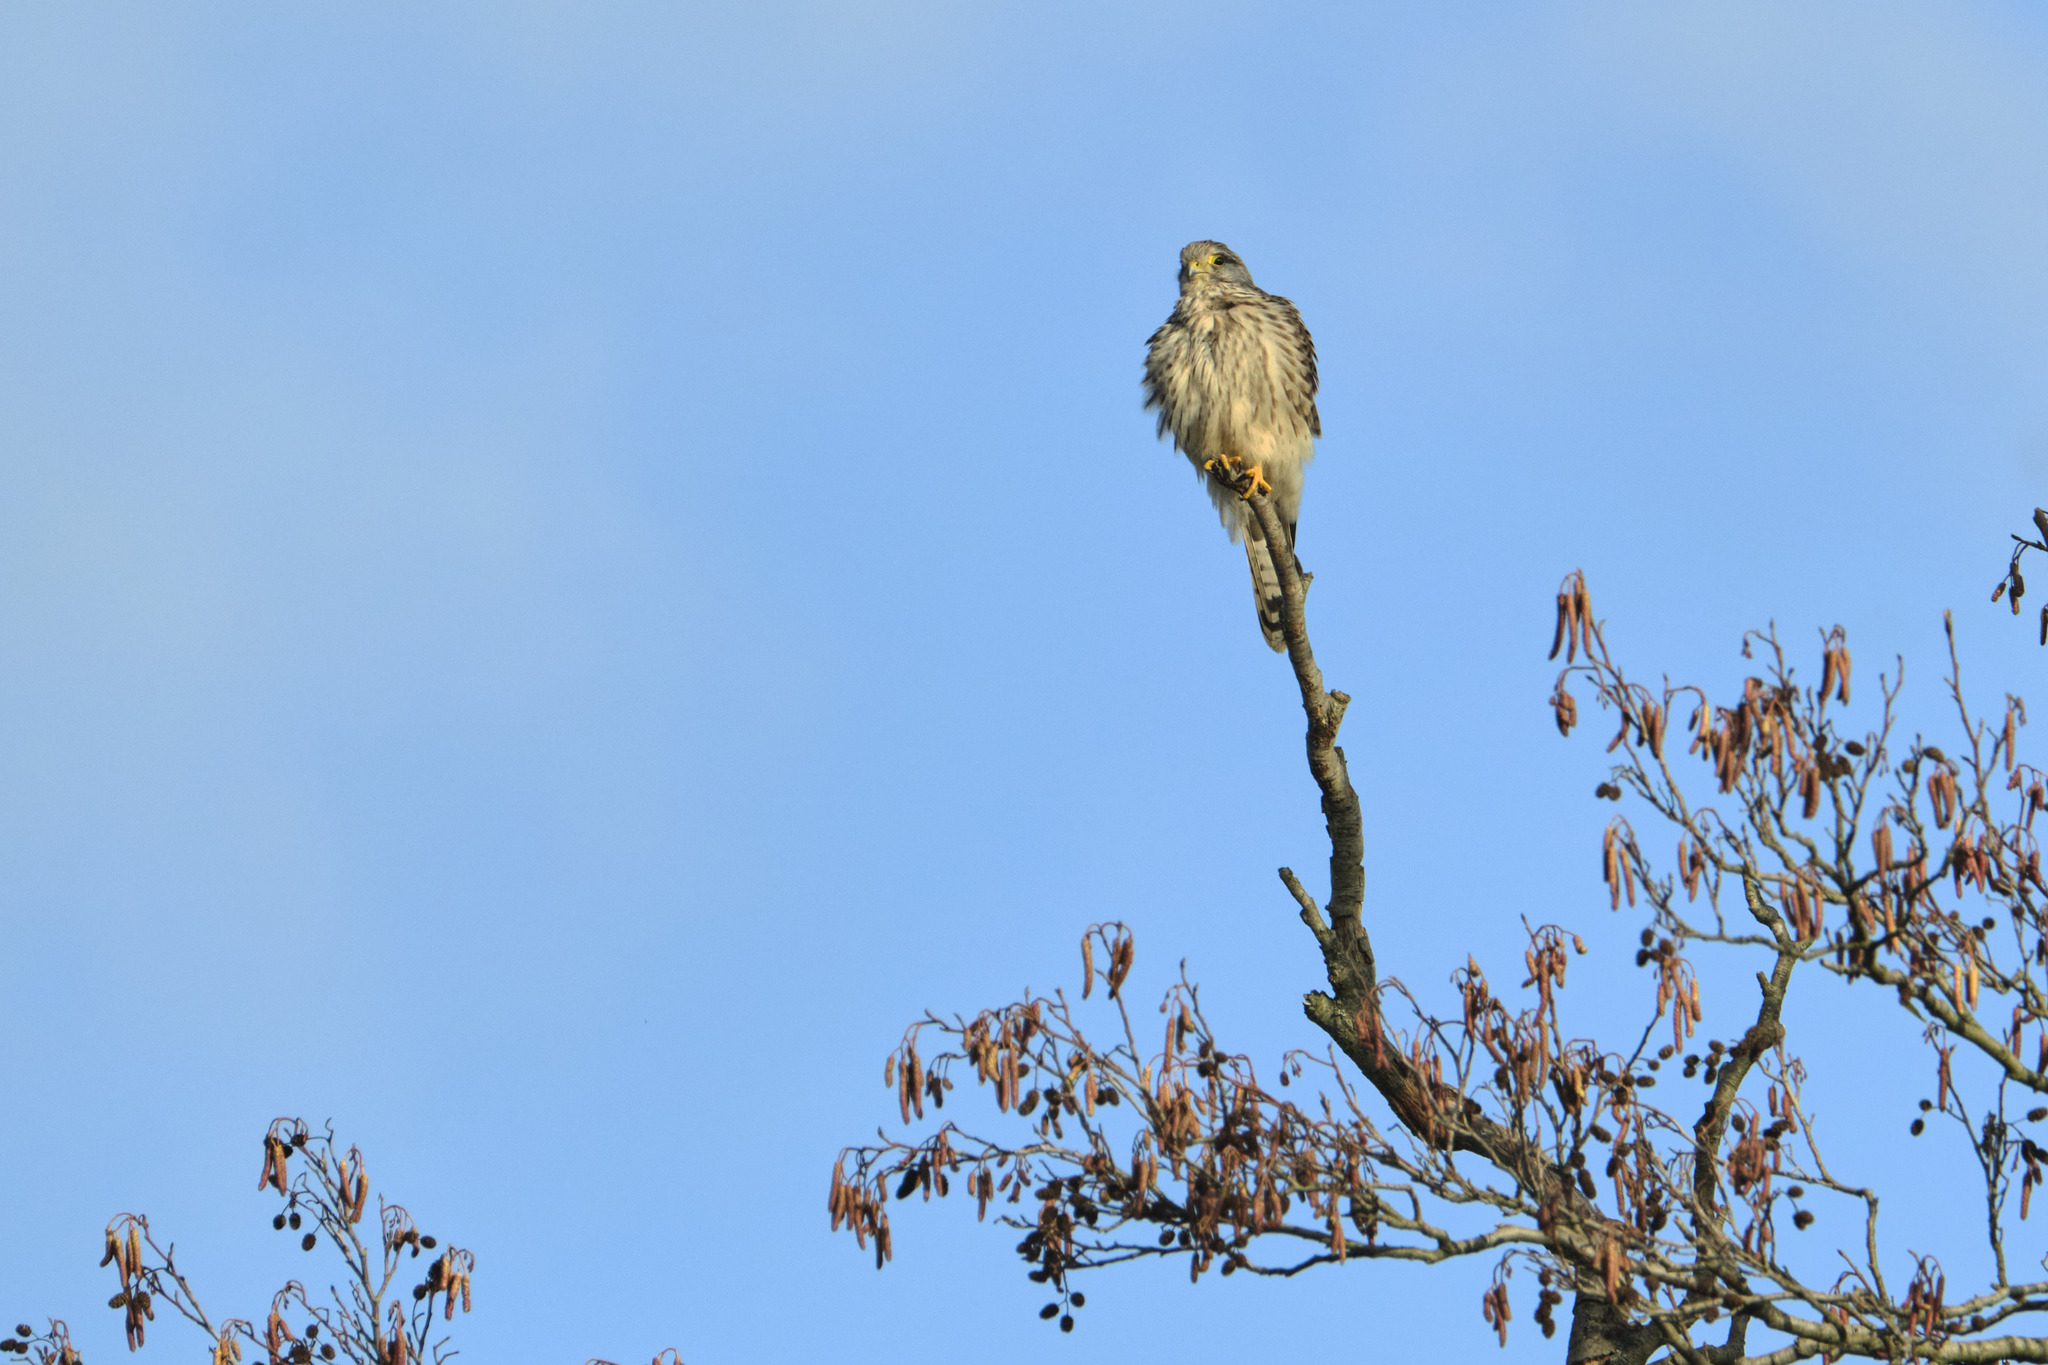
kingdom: Animalia
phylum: Chordata
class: Aves
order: Falconiformes
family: Falconidae
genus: Falco
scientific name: Falco tinnunculus
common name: Common kestrel
